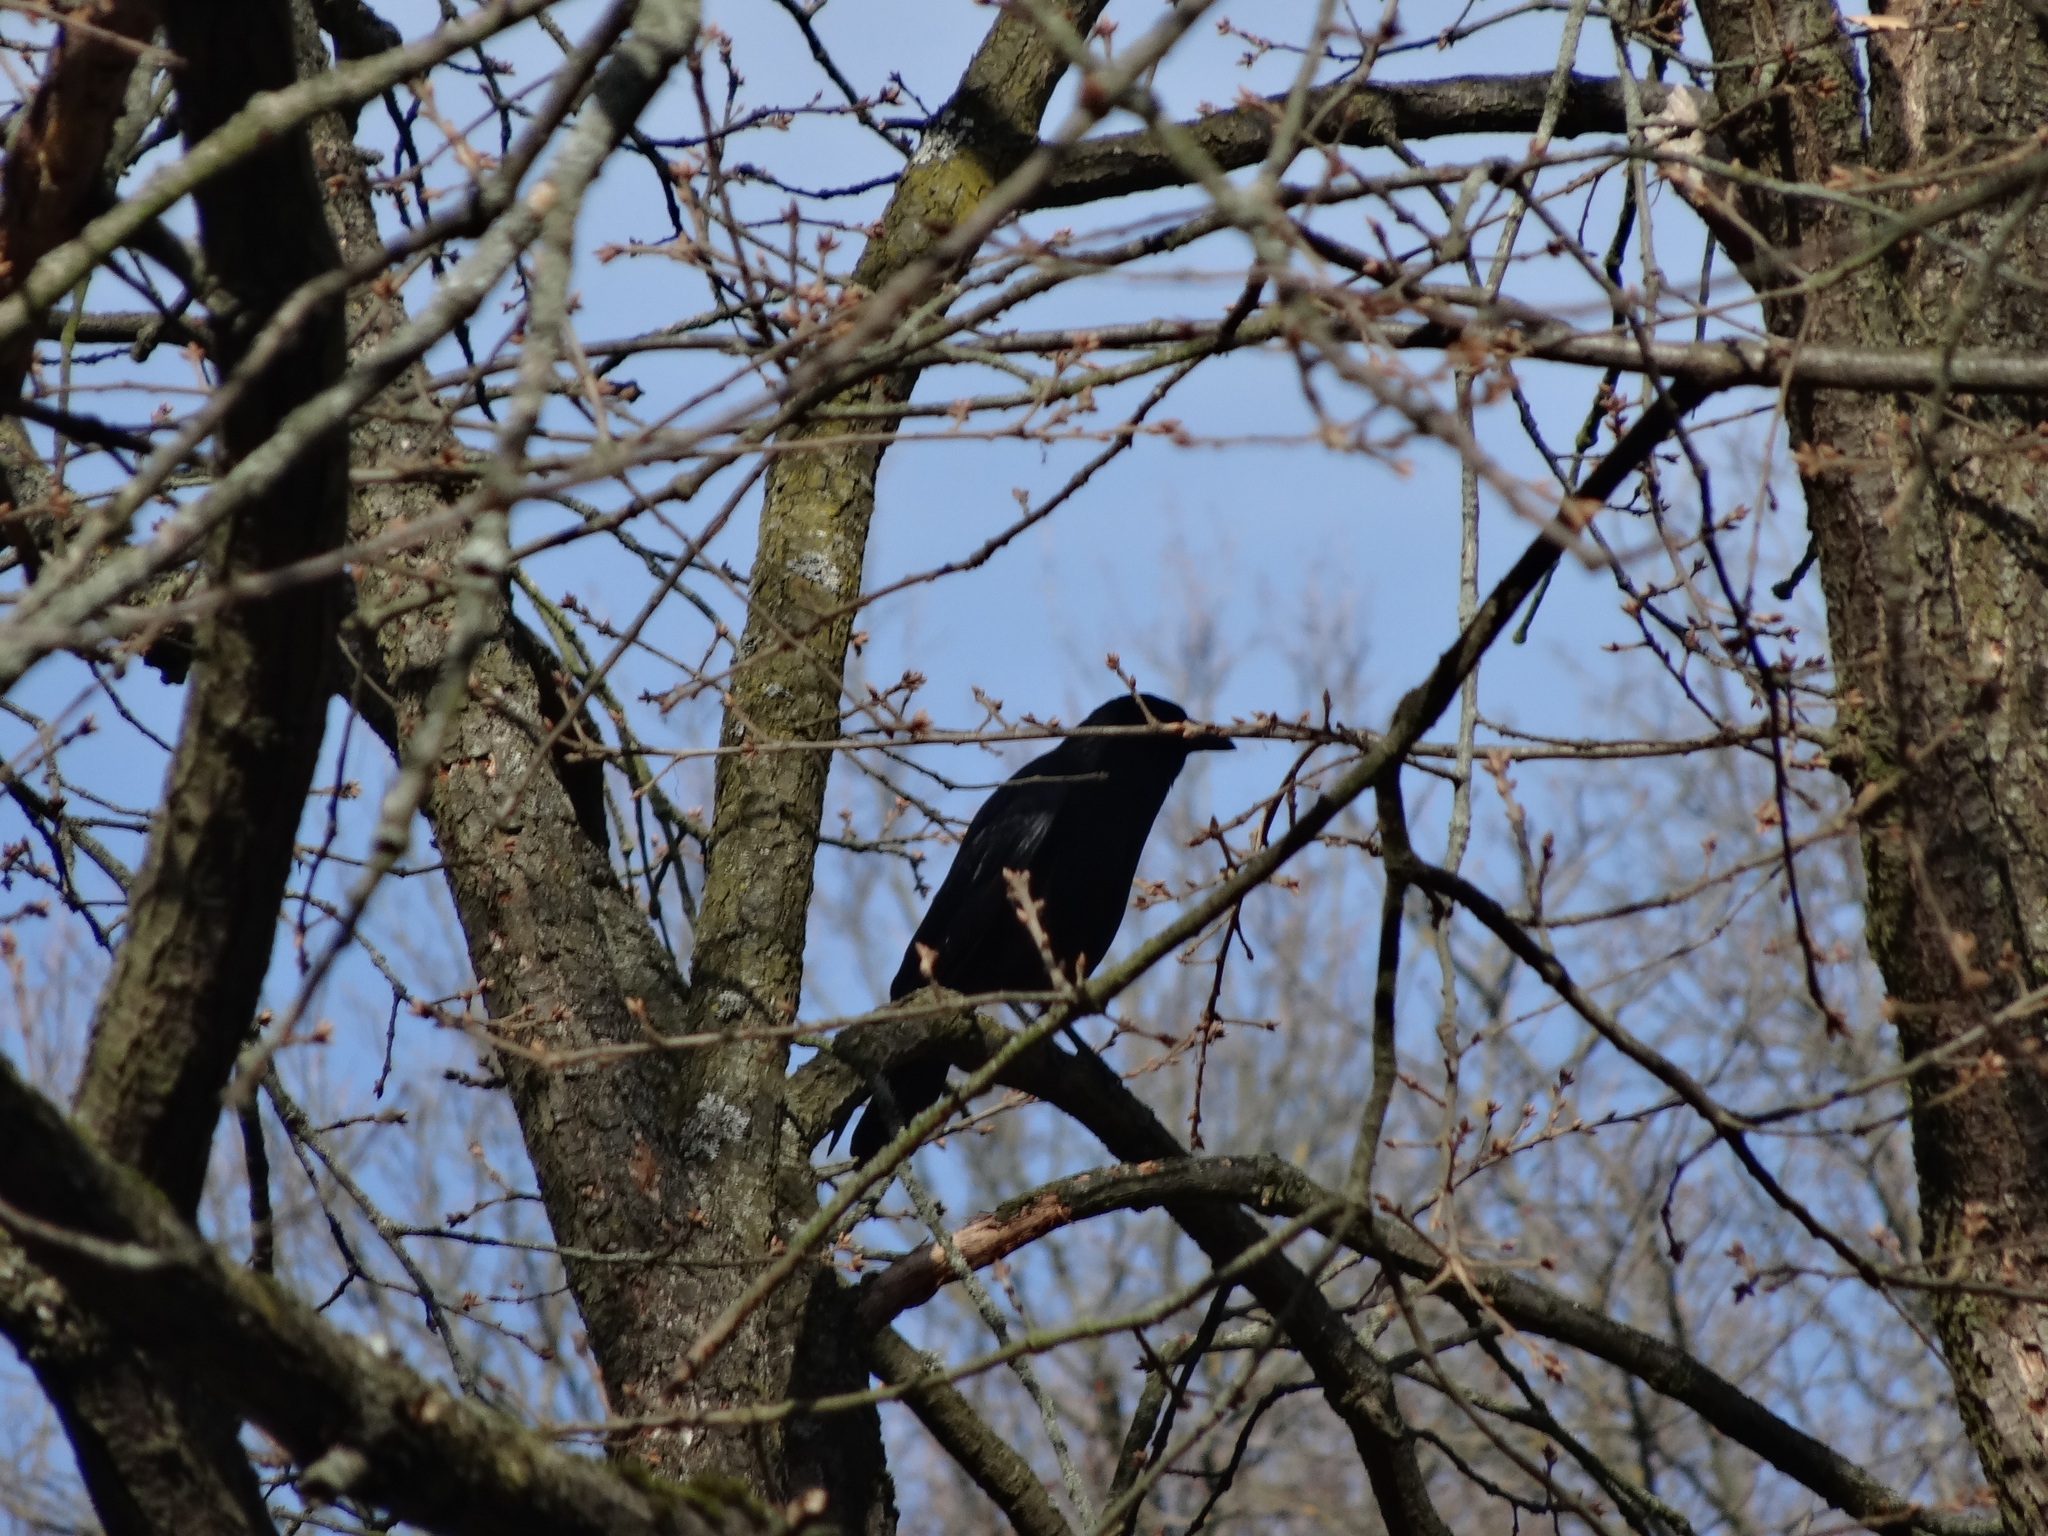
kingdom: Animalia
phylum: Chordata
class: Aves
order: Passeriformes
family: Corvidae
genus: Corvus
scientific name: Corvus frugilegus
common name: Rook
